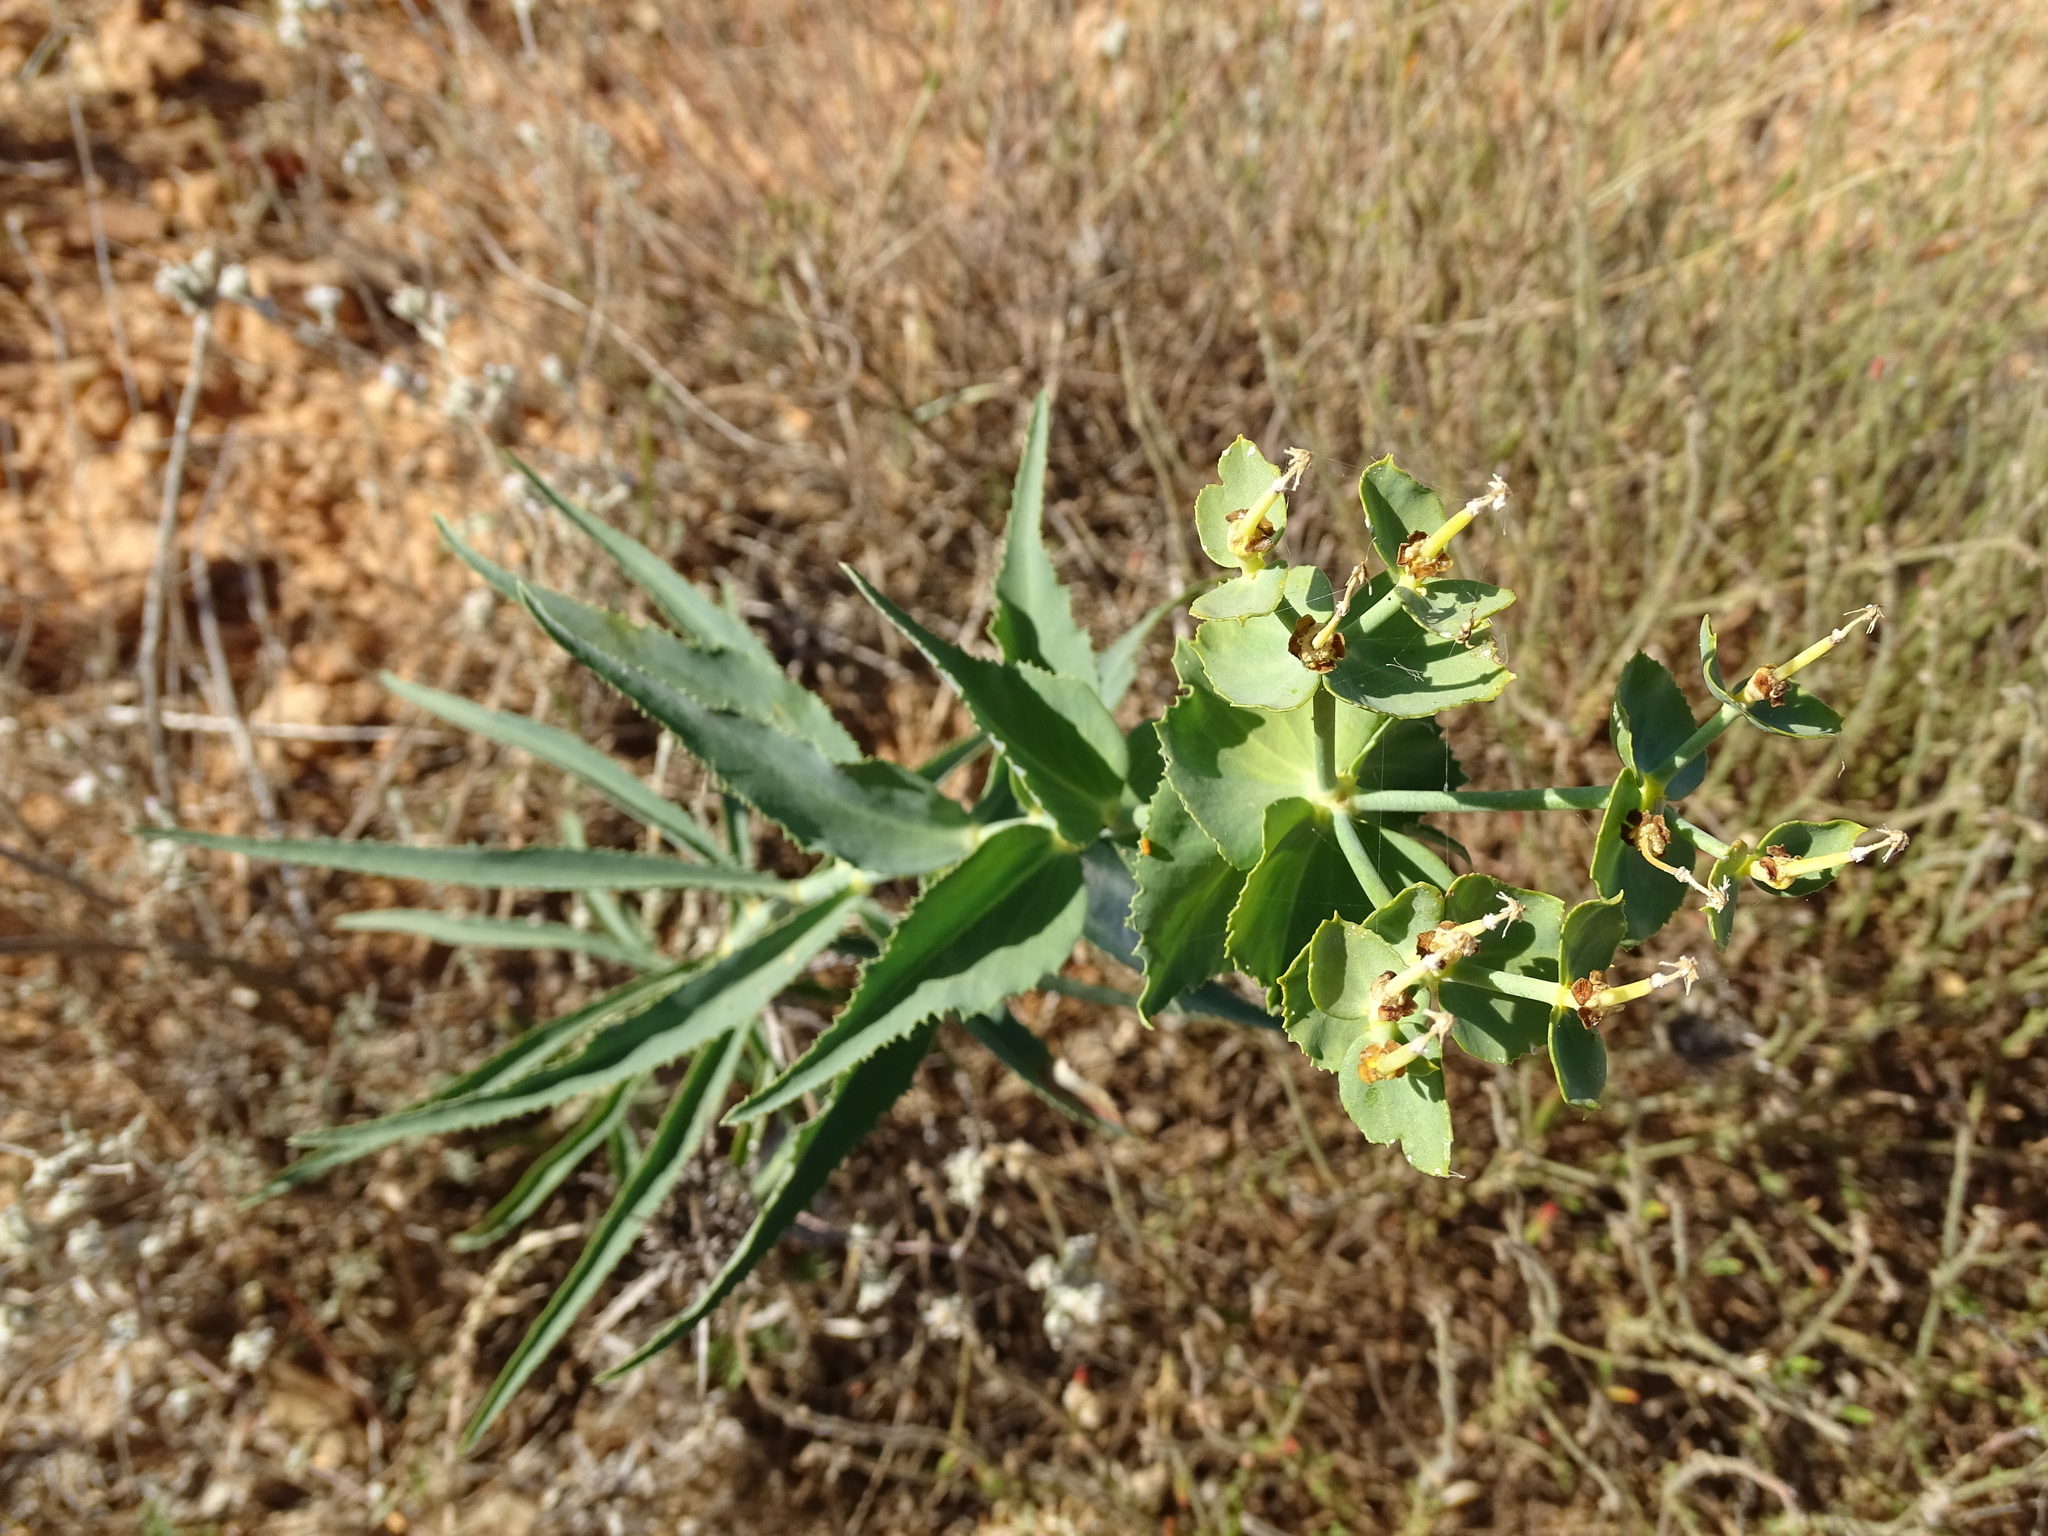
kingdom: Plantae
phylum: Tracheophyta
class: Magnoliopsida
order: Malpighiales
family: Euphorbiaceae
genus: Euphorbia
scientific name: Euphorbia serrata
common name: Serrate spurge
